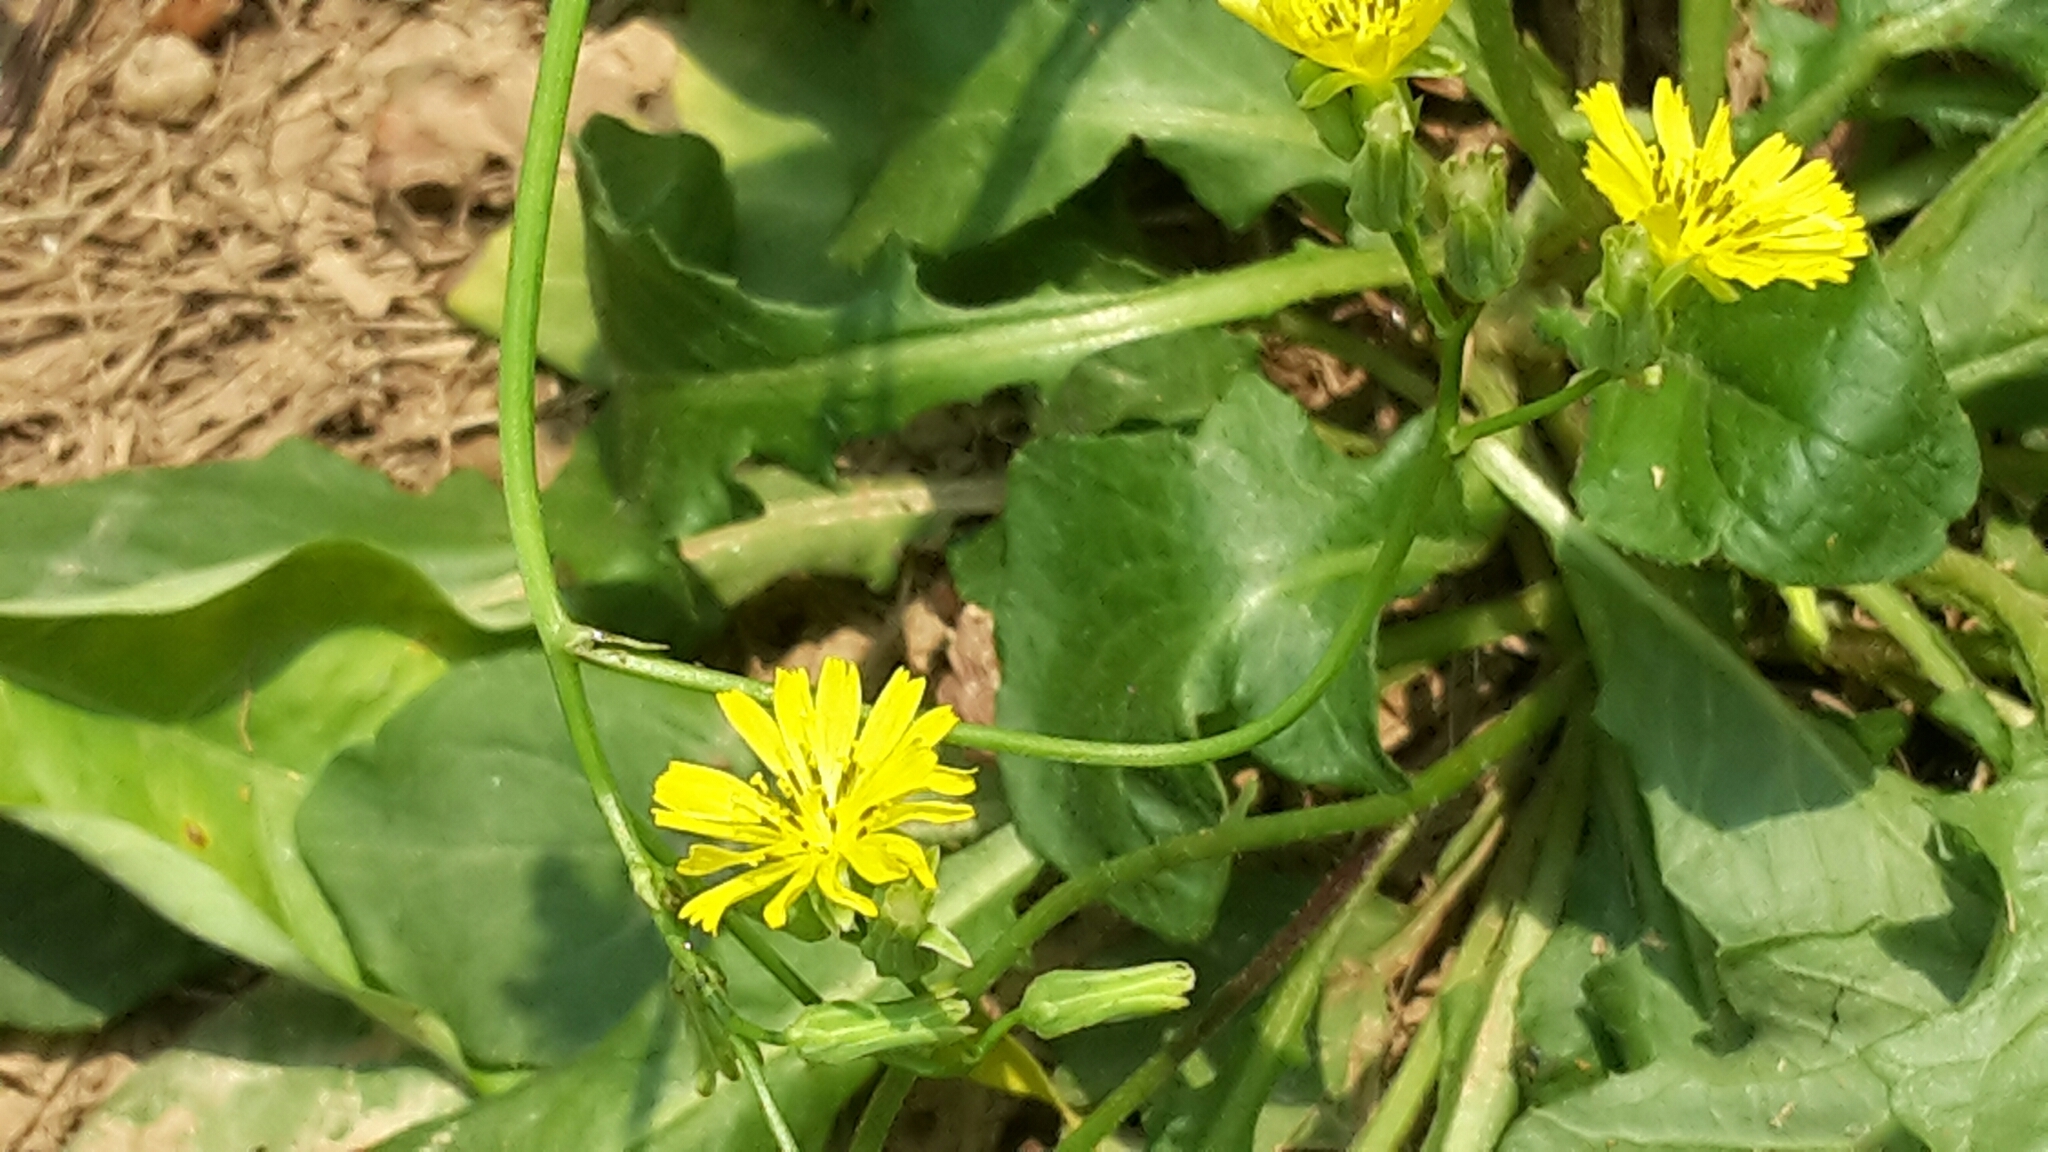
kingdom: Plantae
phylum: Tracheophyta
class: Magnoliopsida
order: Asterales
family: Asteraceae
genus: Youngia
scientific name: Youngia japonica
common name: Oriental false hawksbeard
